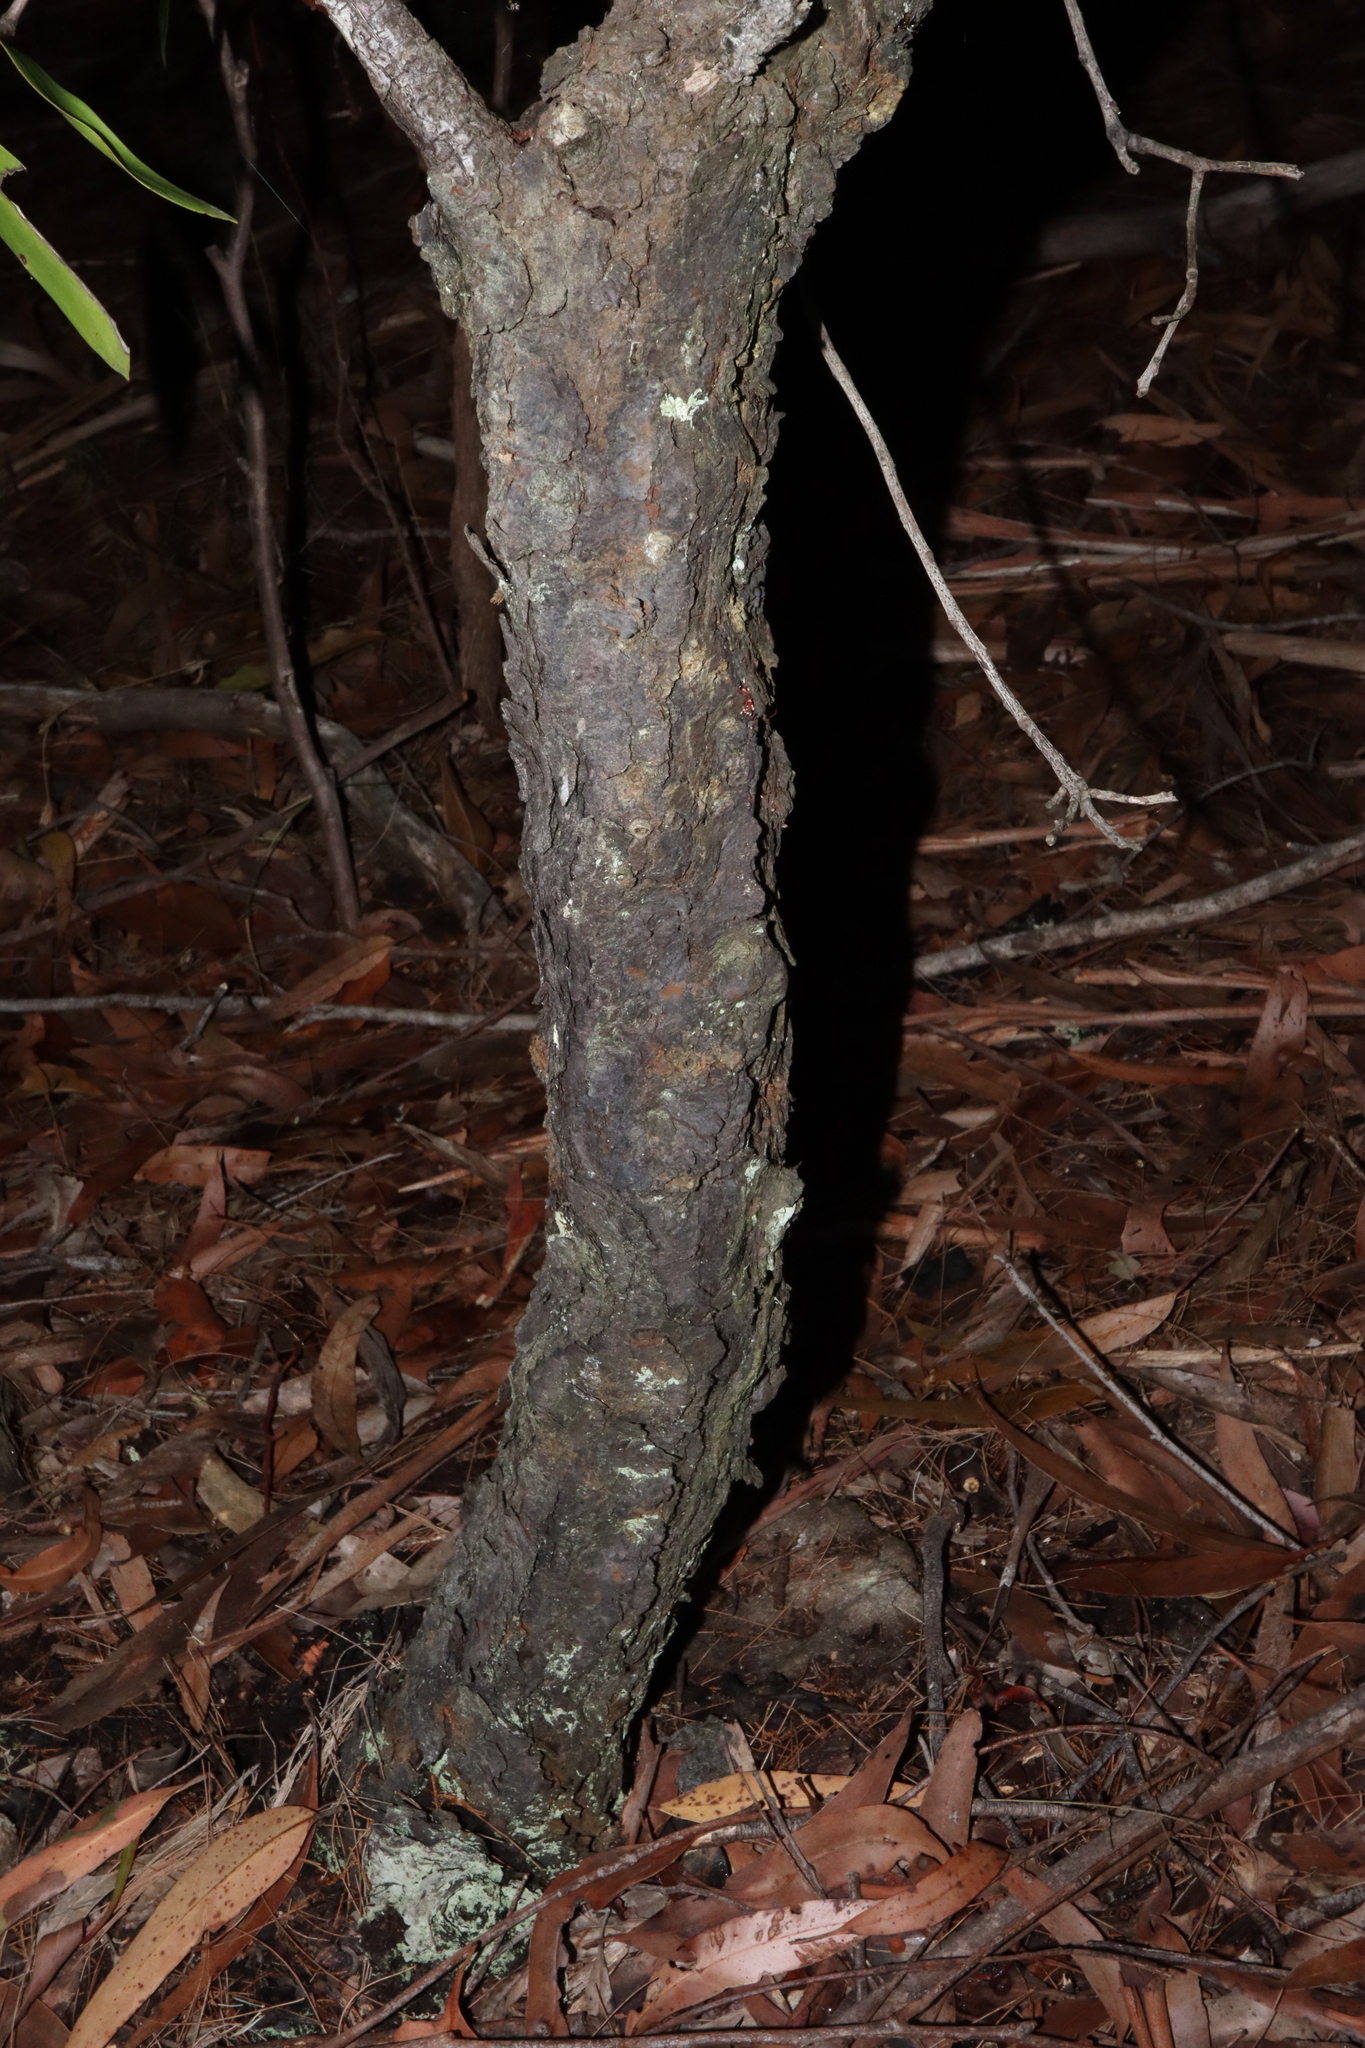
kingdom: Plantae
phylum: Tracheophyta
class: Magnoliopsida
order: Proteales
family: Proteaceae
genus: Persoonia
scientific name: Persoonia levis
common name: Smooth geebung
